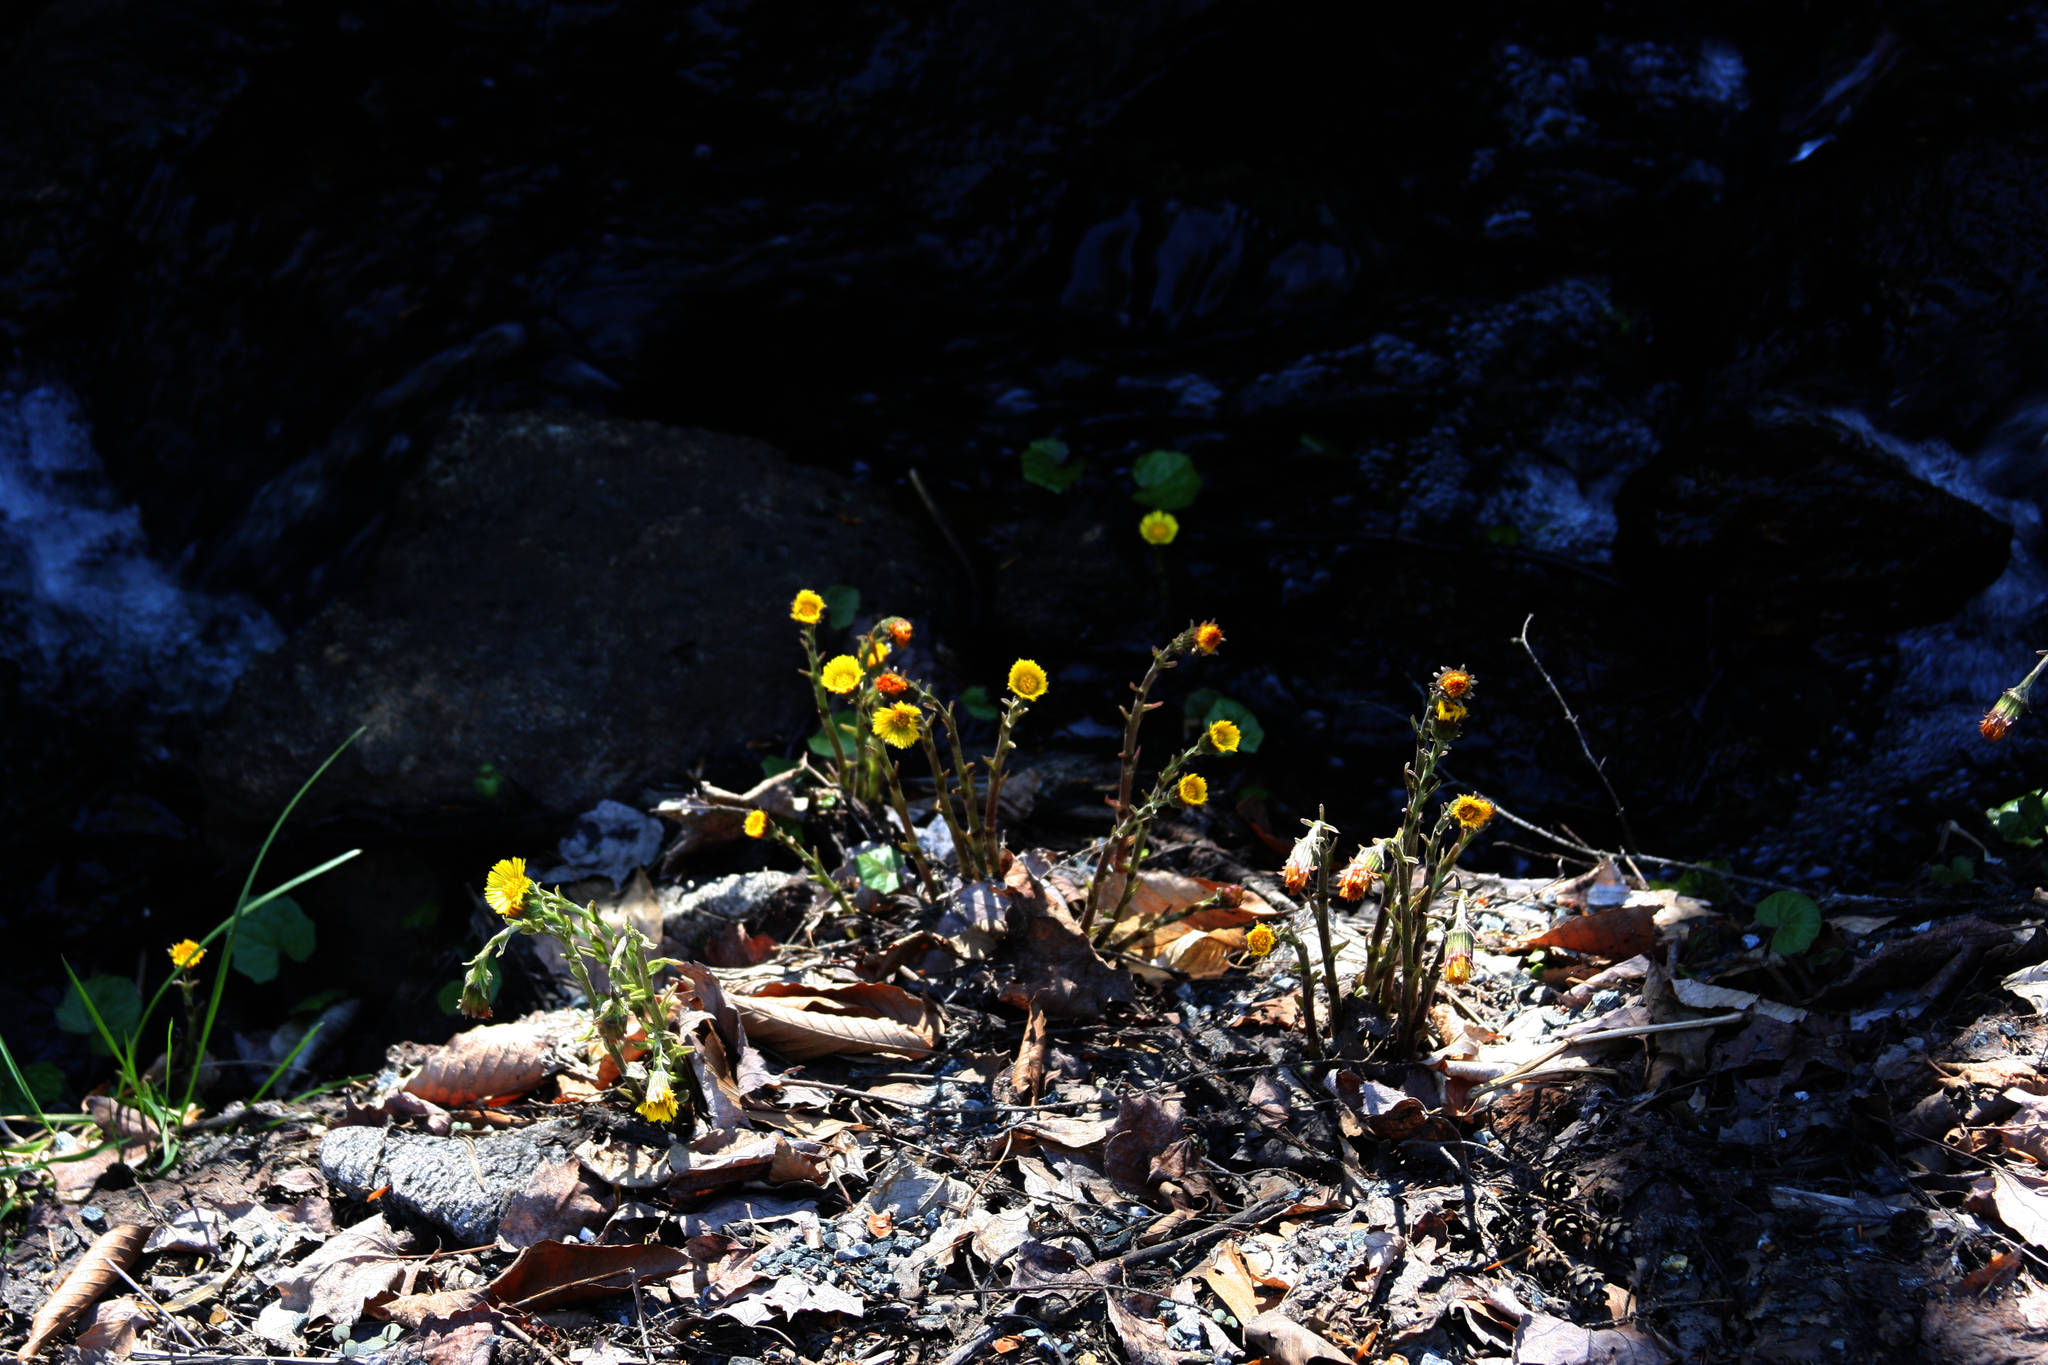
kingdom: Plantae
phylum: Tracheophyta
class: Magnoliopsida
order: Asterales
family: Asteraceae
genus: Tussilago
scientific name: Tussilago farfara
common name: Coltsfoot
